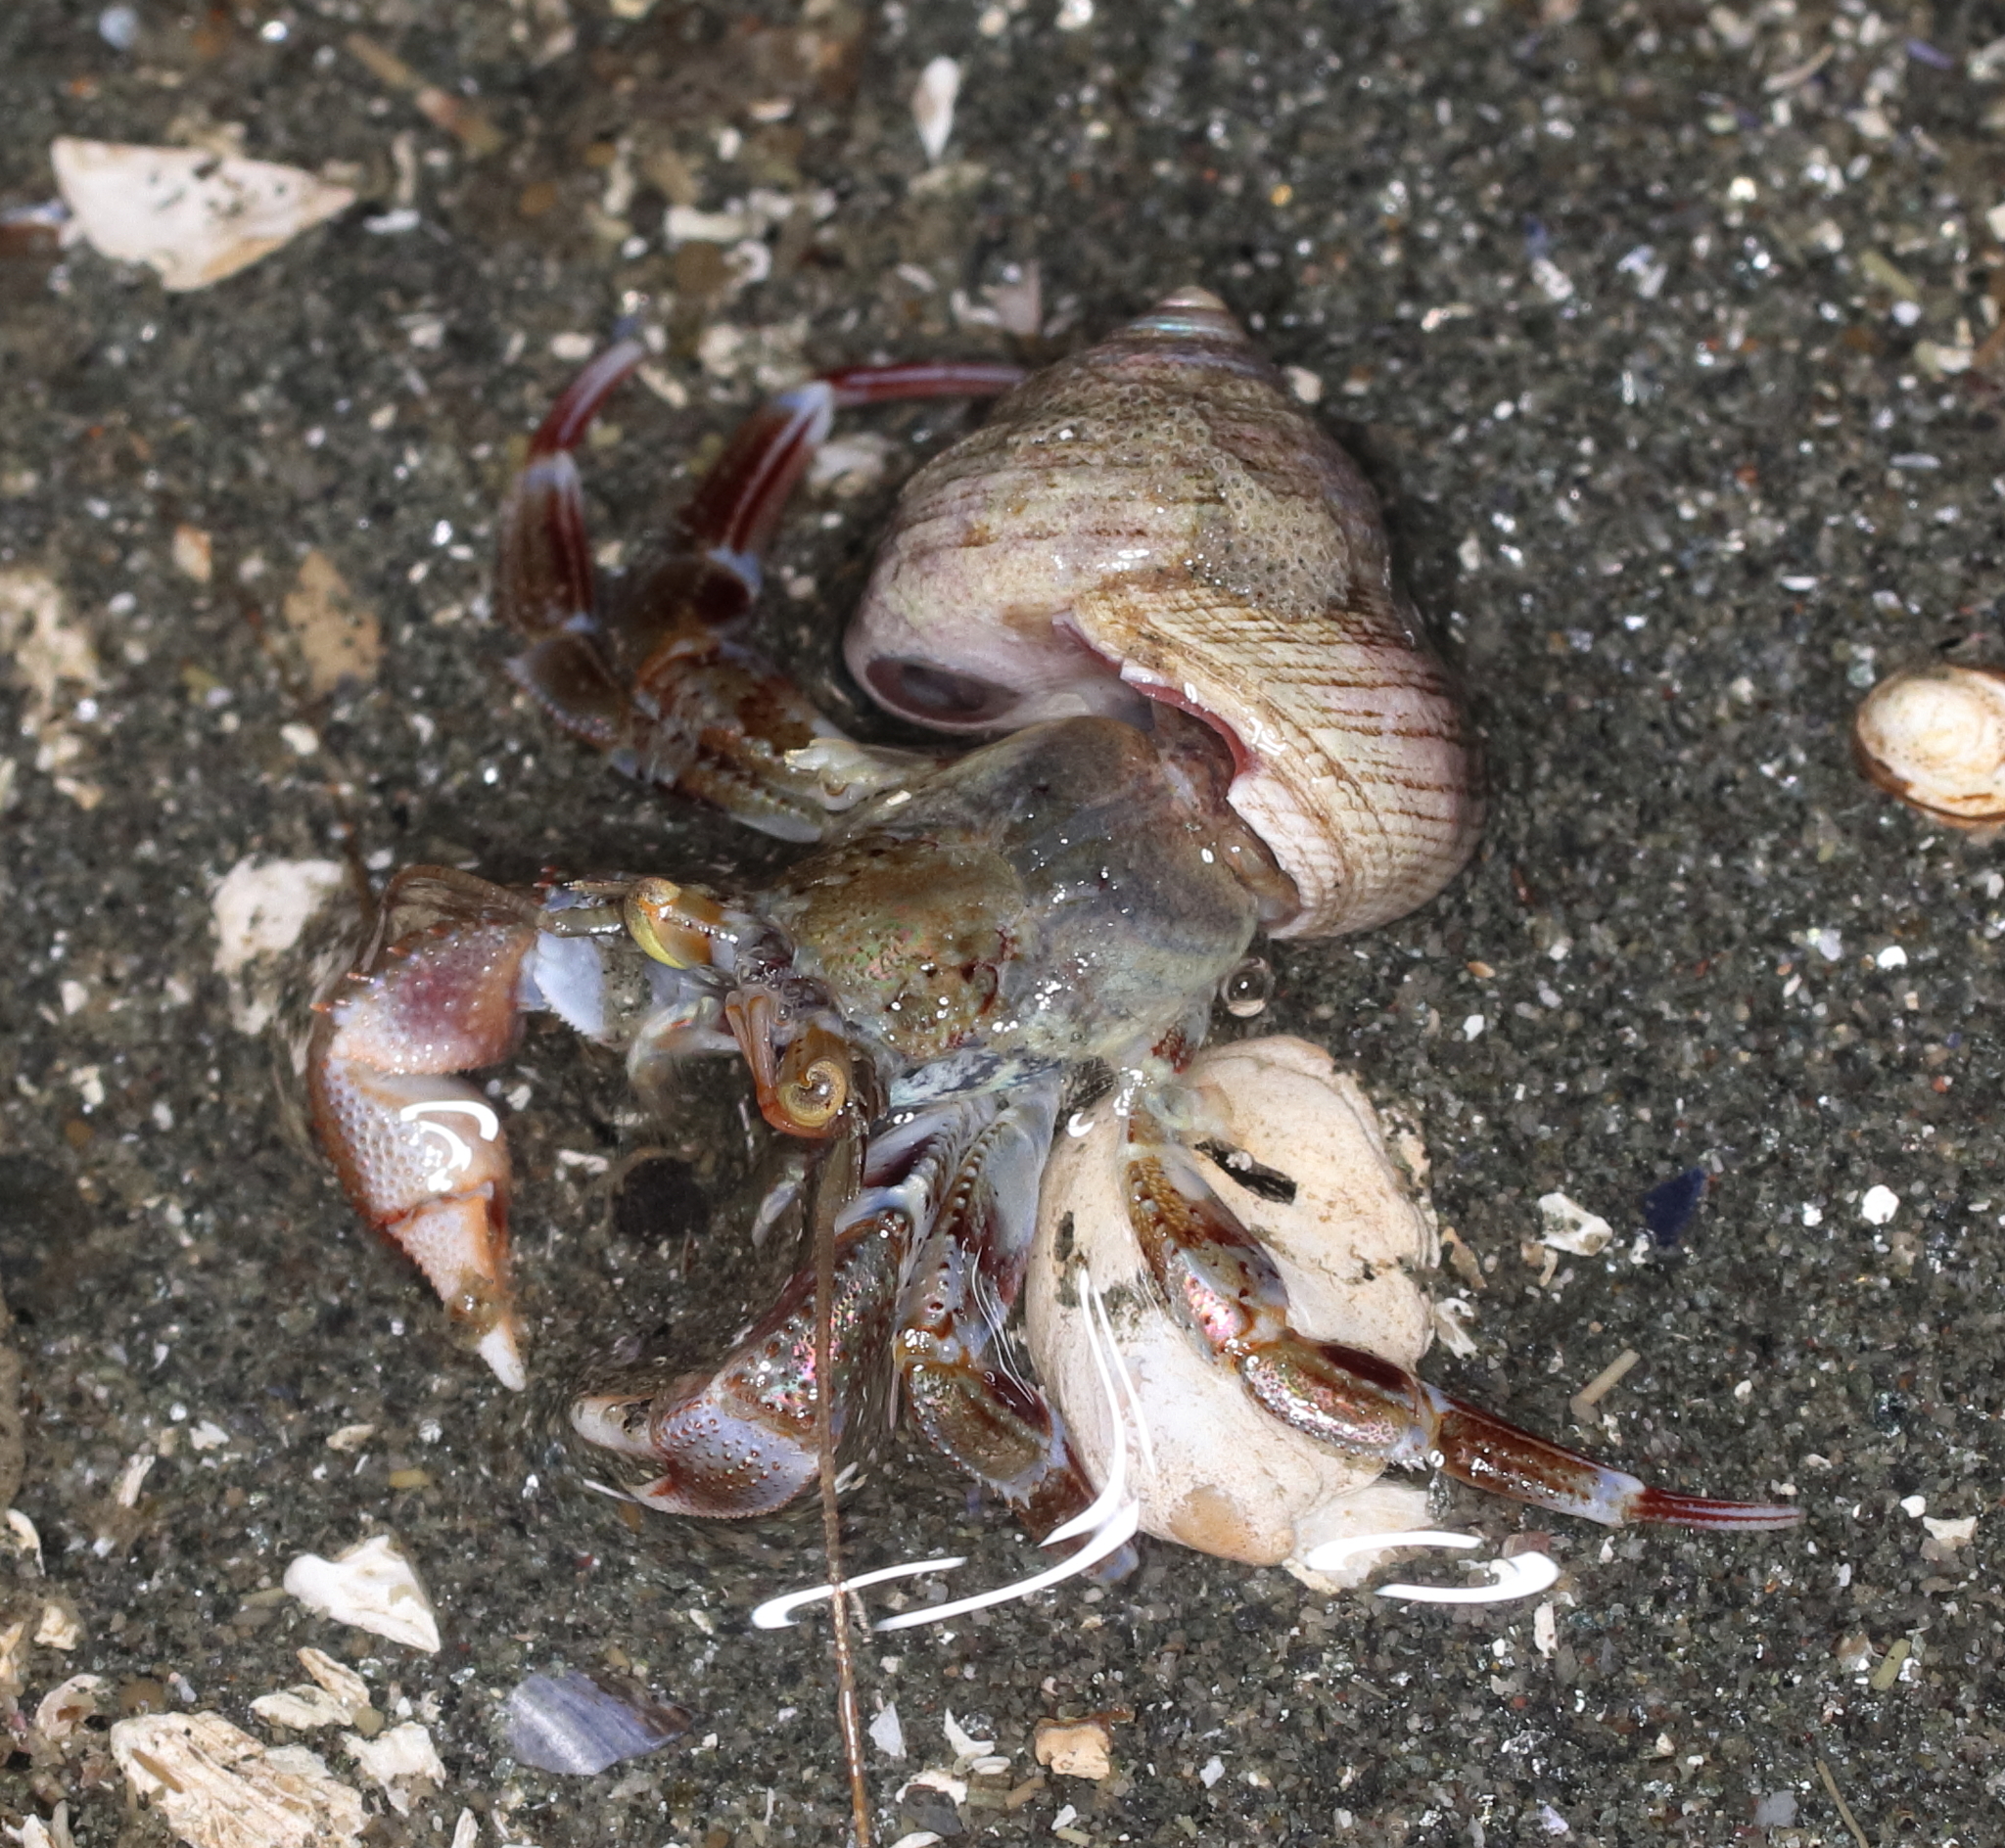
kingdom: Animalia
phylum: Arthropoda
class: Malacostraca
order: Decapoda
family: Paguridae
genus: Pagurus
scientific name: Pagurus ochotensis
